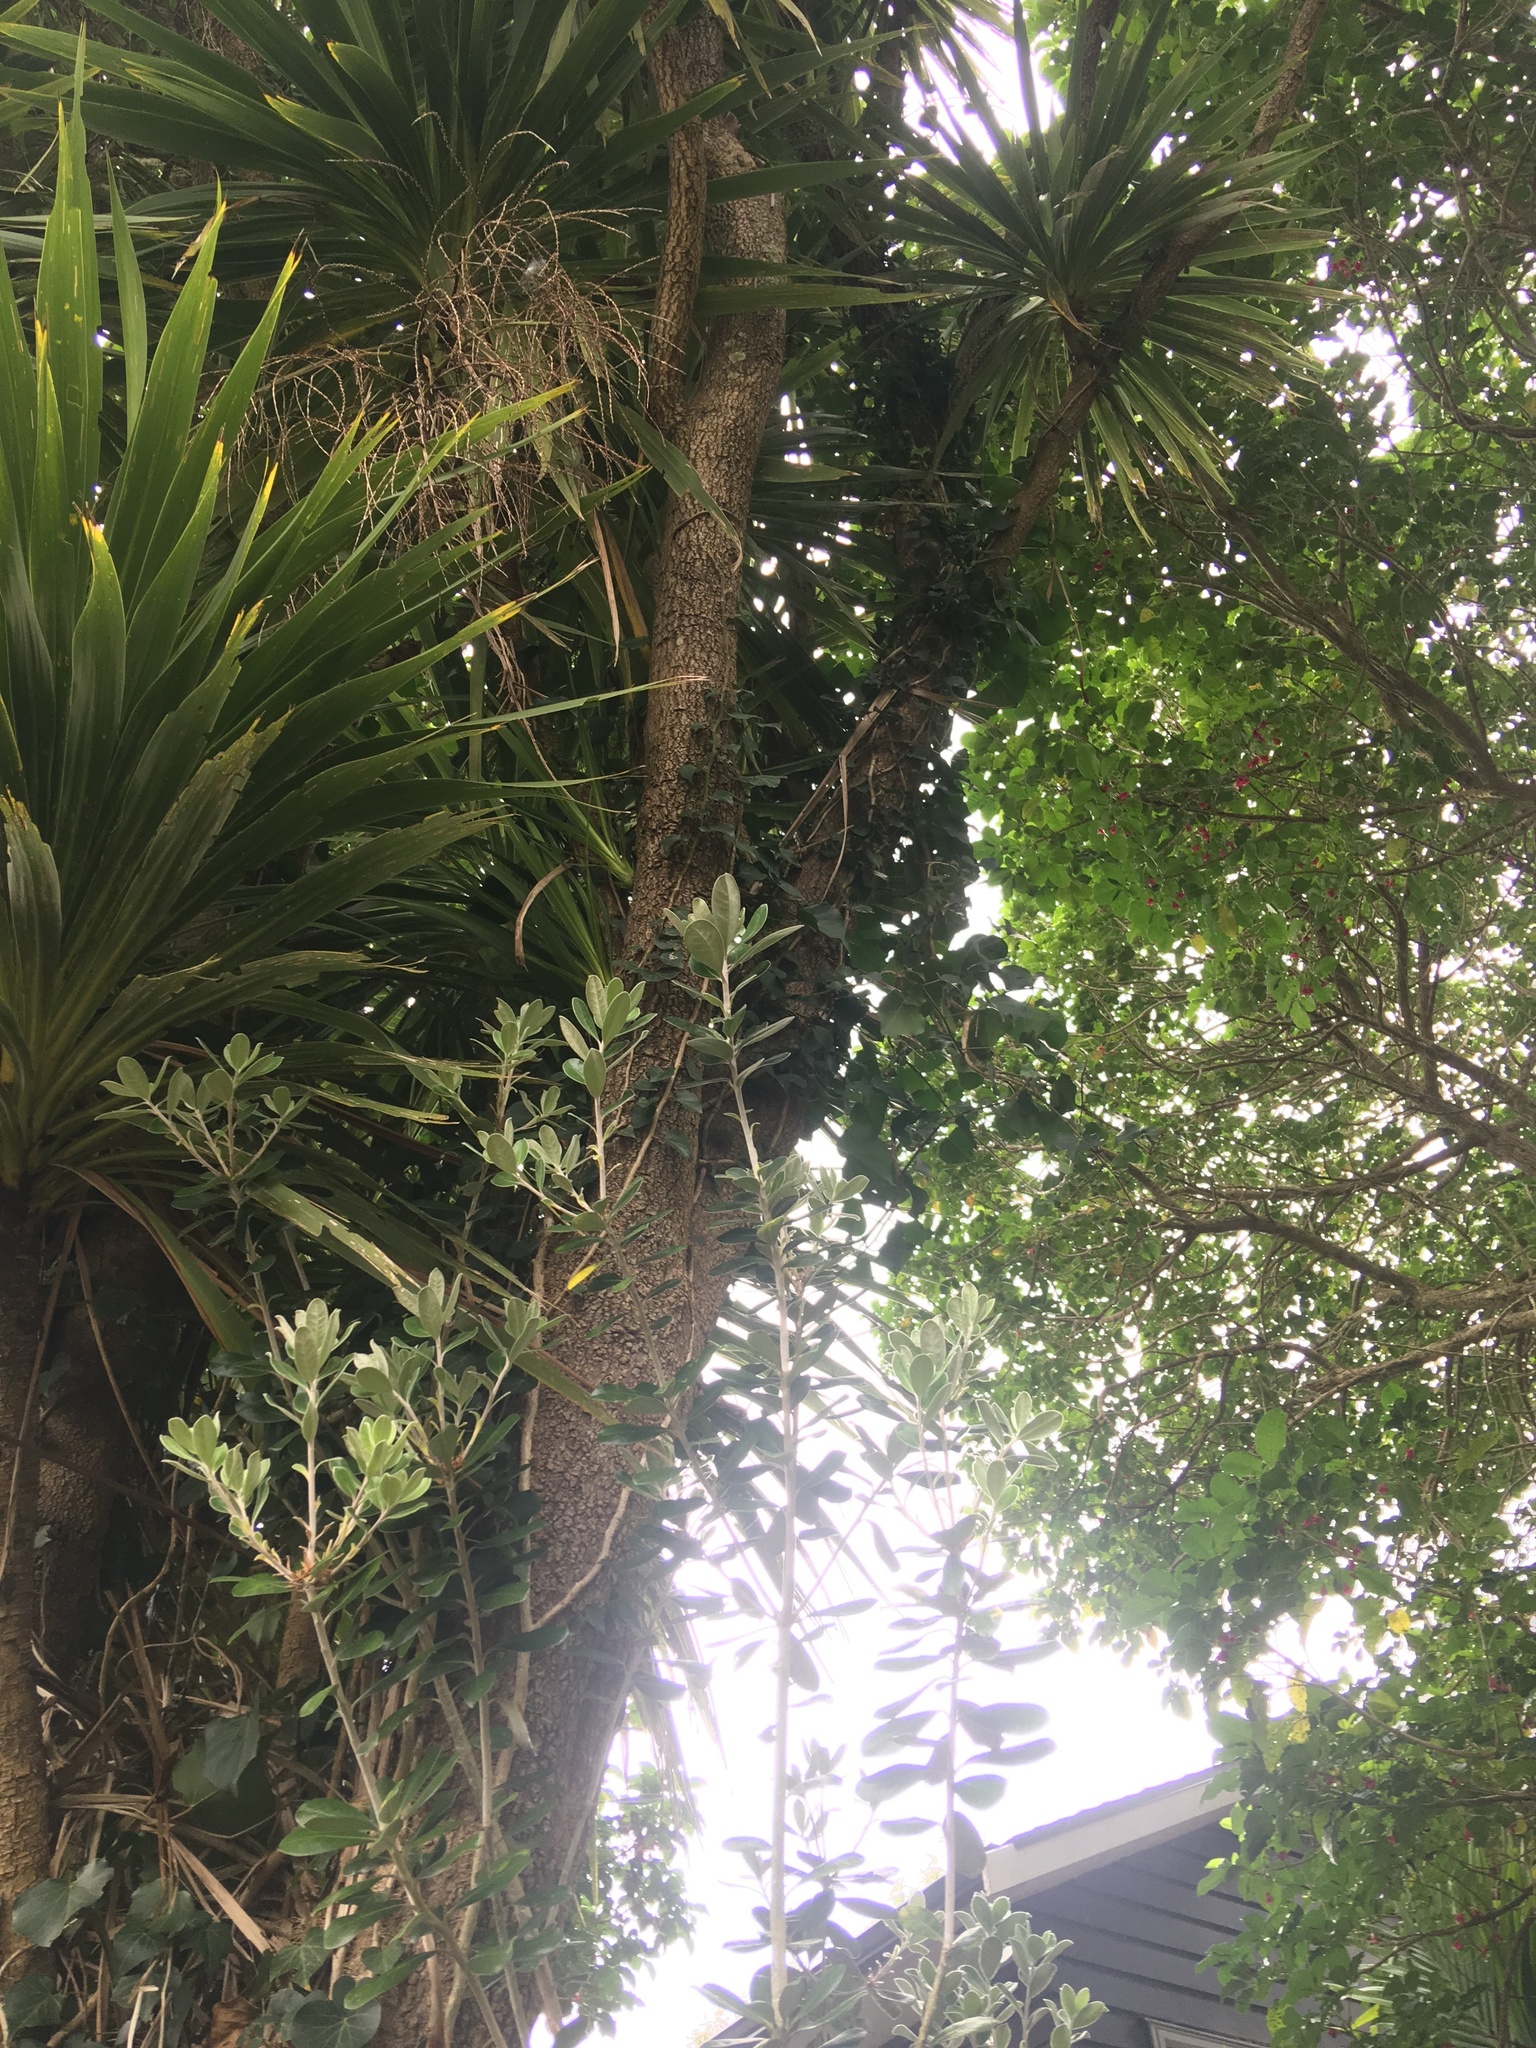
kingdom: Plantae
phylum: Tracheophyta
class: Magnoliopsida
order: Myrtales
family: Myrtaceae
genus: Metrosideros
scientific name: Metrosideros excelsa
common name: New zealand christmastree
